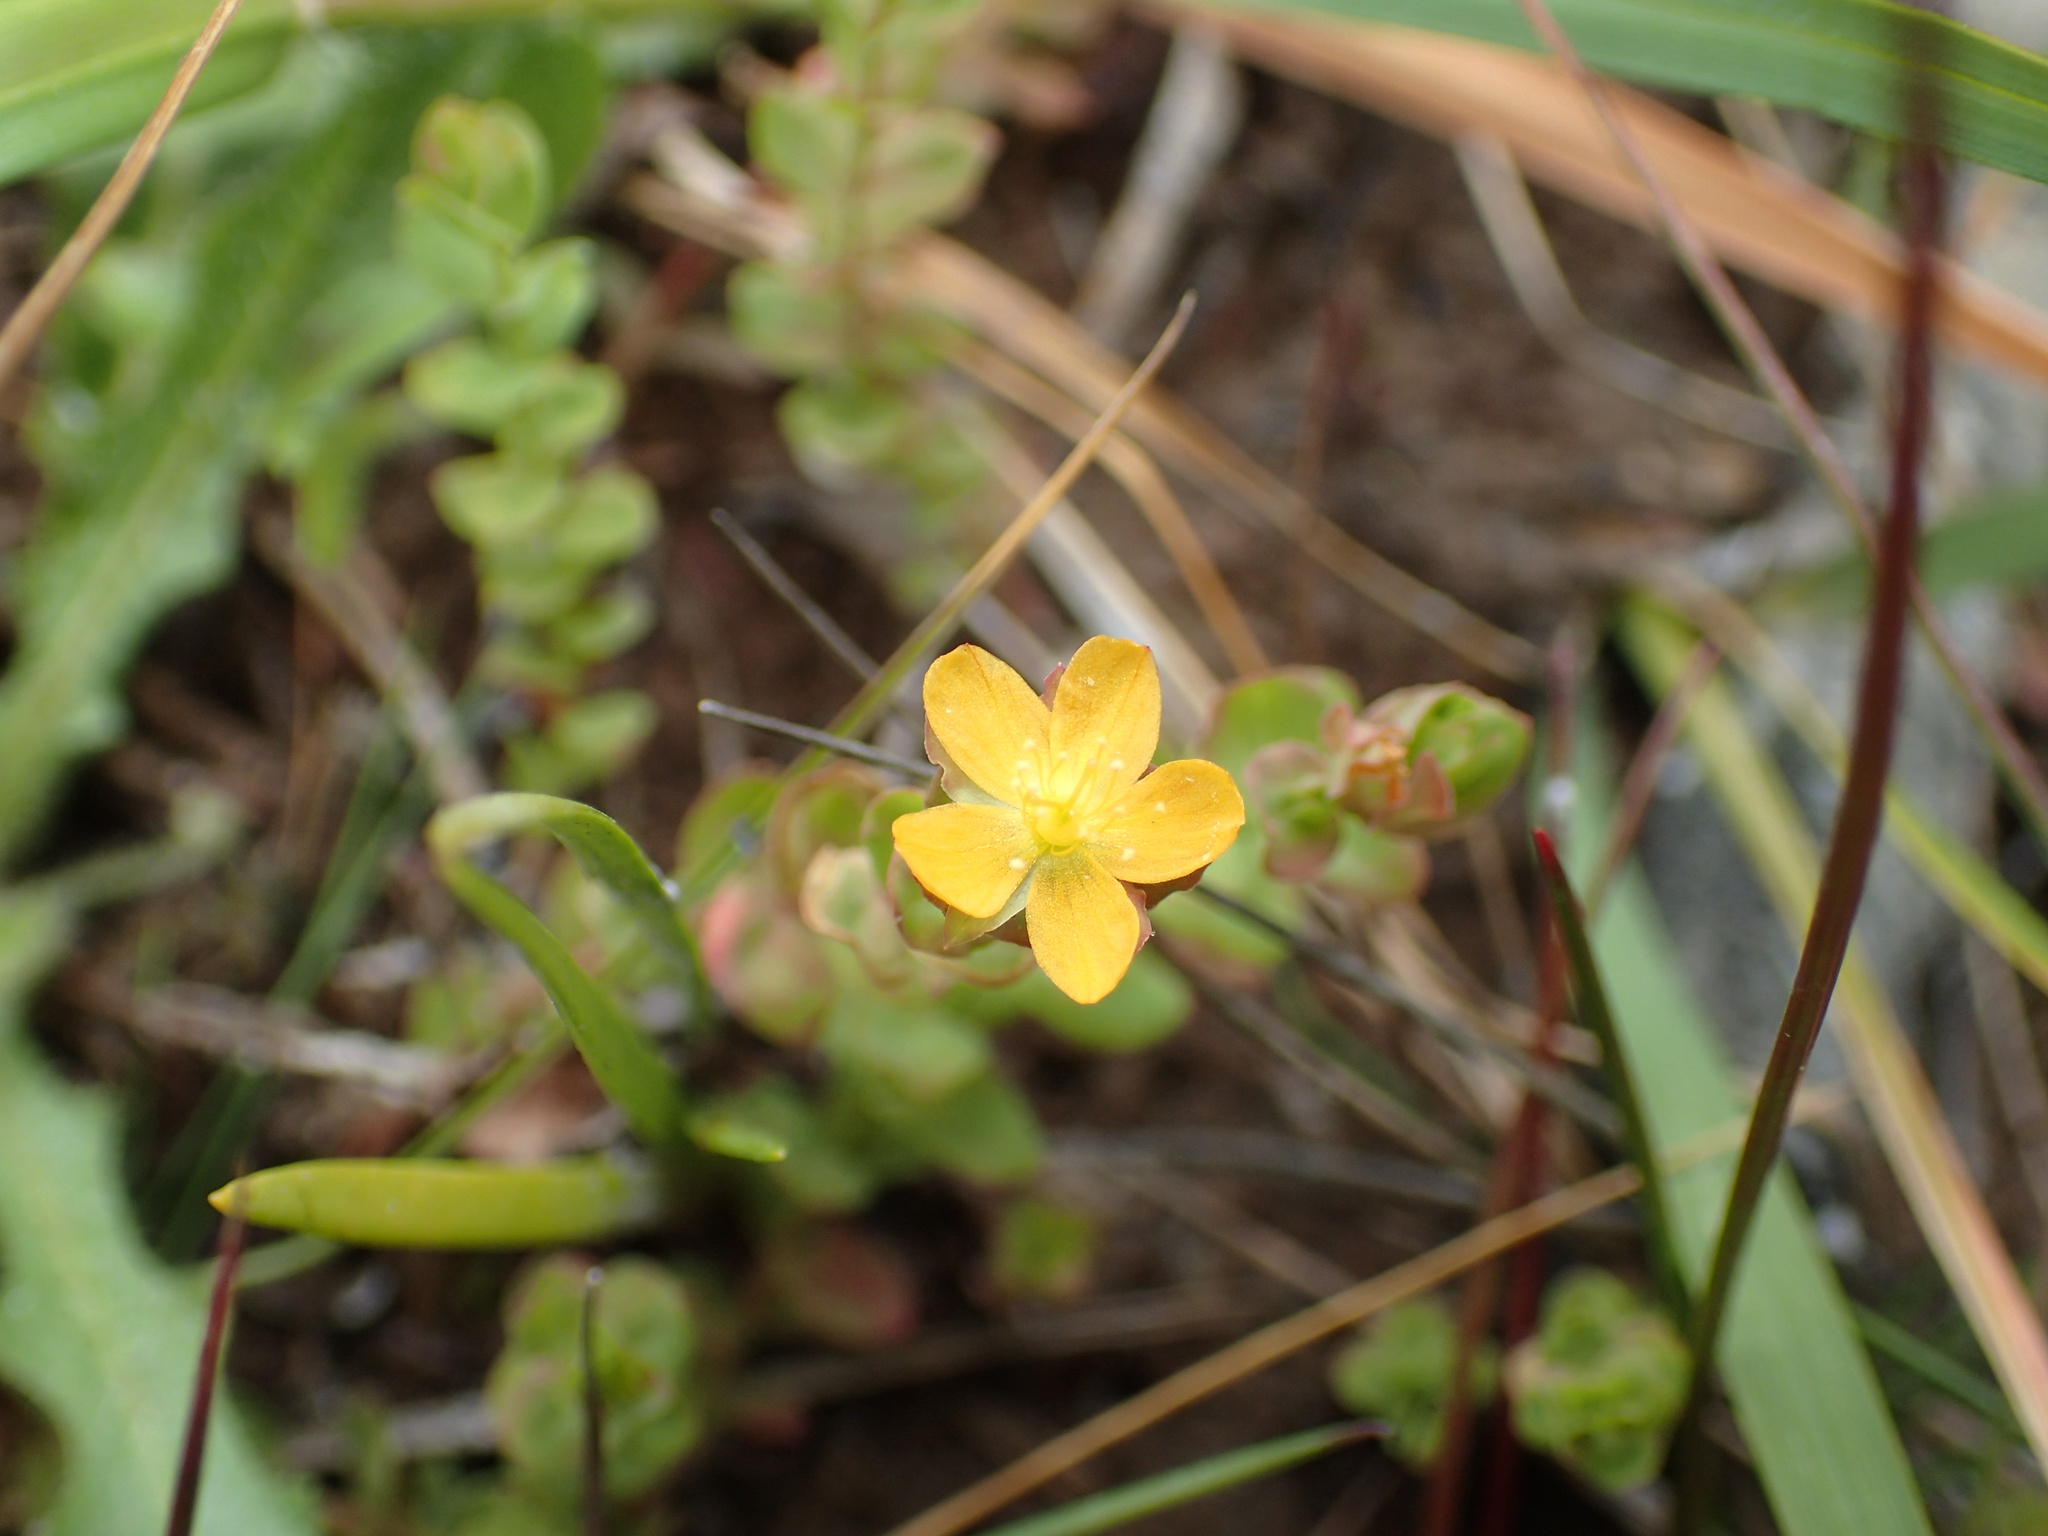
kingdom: Plantae
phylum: Tracheophyta
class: Magnoliopsida
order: Malpighiales
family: Hypericaceae
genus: Hypericum
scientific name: Hypericum anagalloides
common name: Bog st. john's-wort
